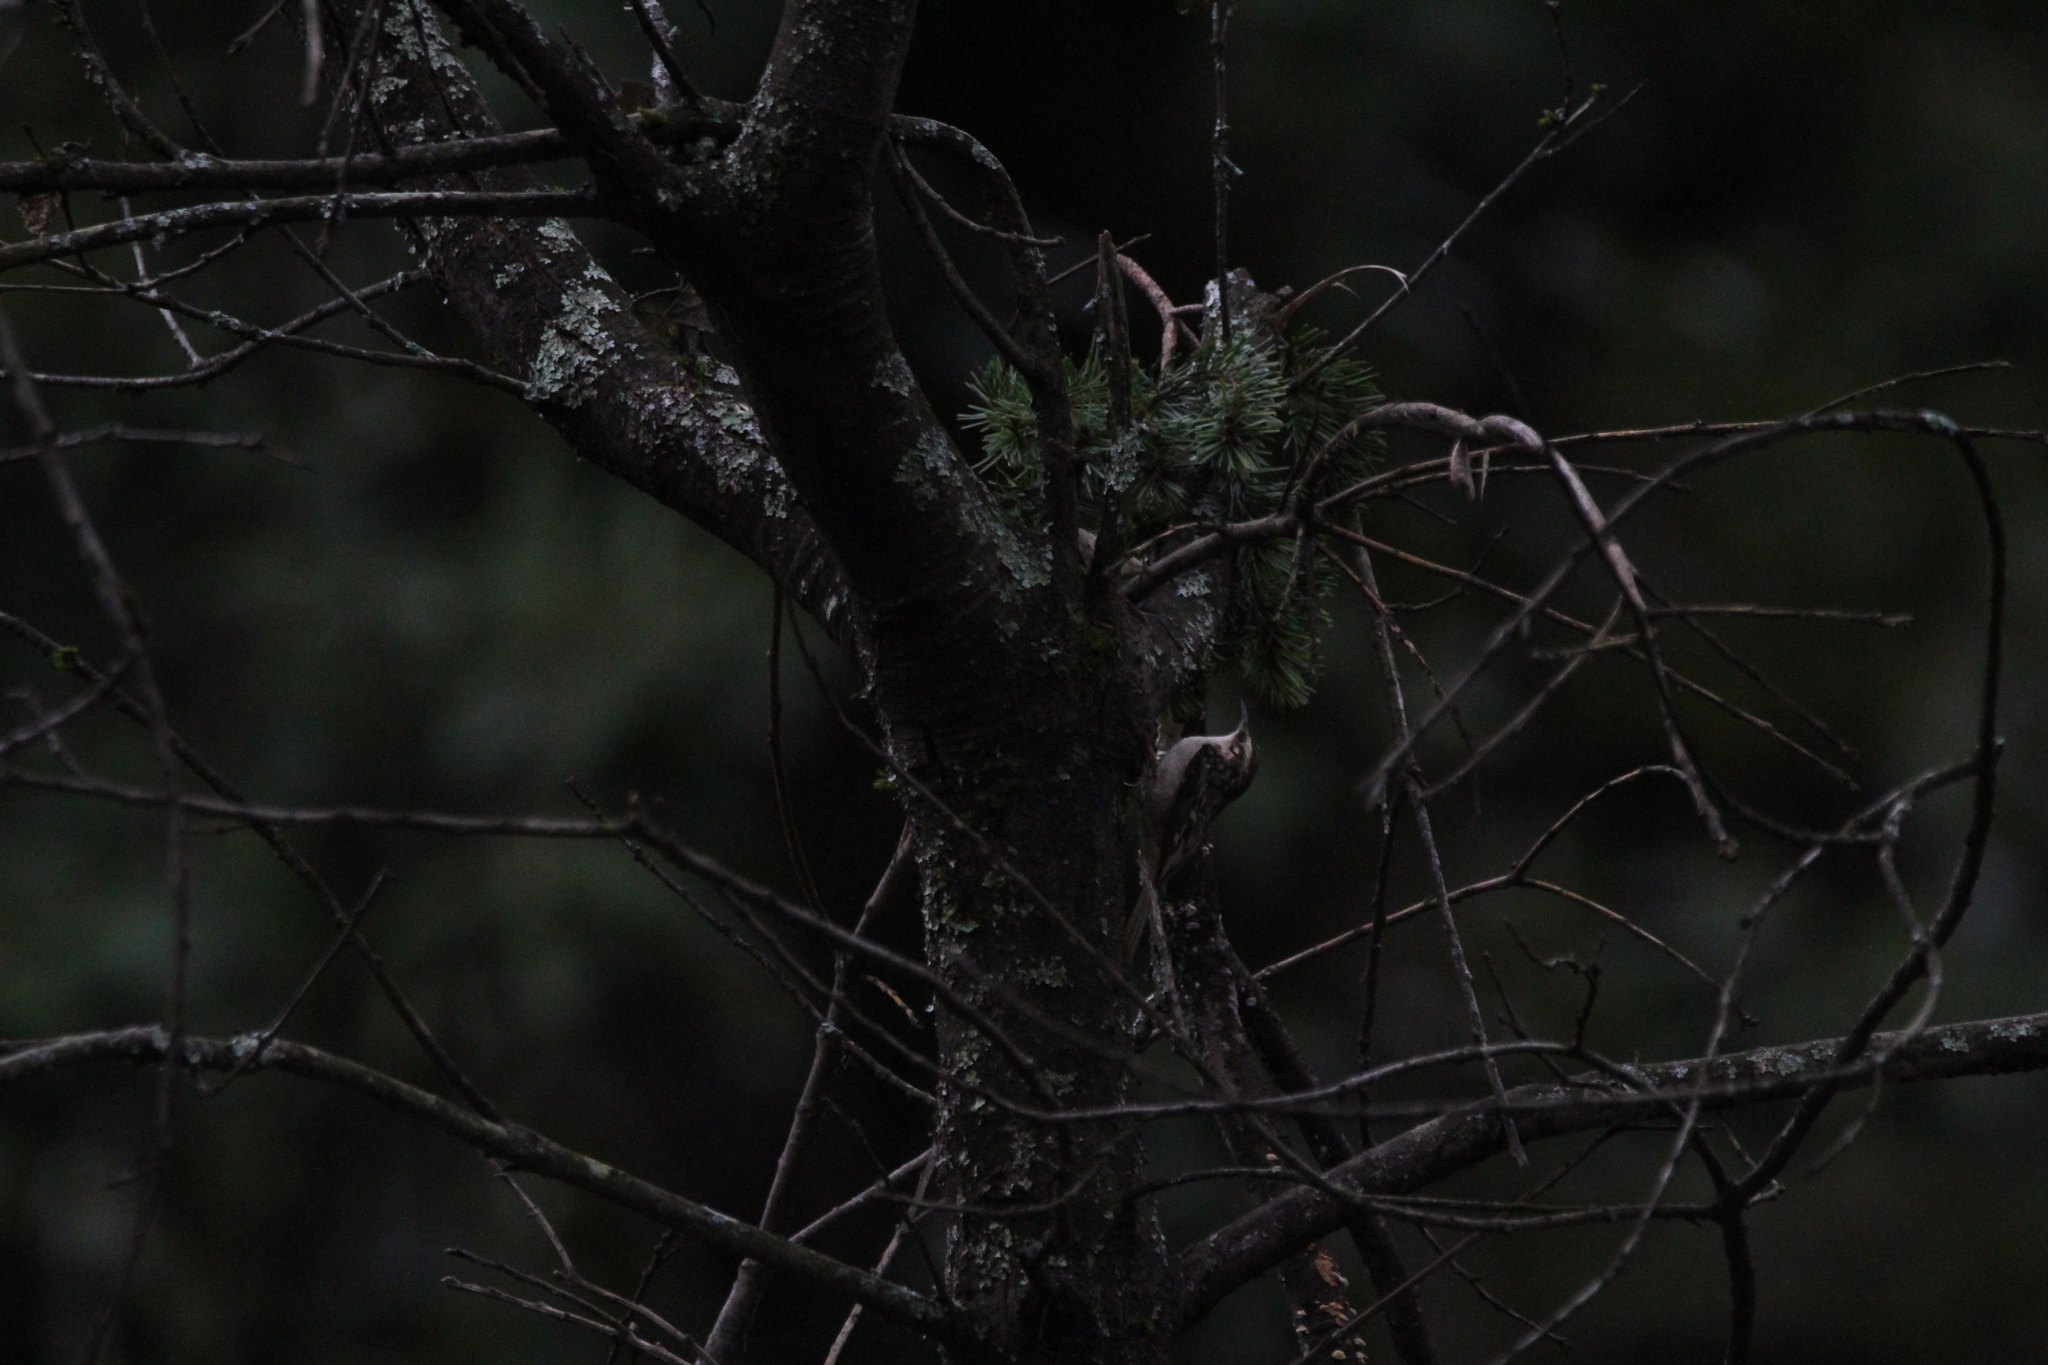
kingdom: Animalia
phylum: Chordata
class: Aves
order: Passeriformes
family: Certhiidae
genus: Certhia
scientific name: Certhia americana
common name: Brown creeper
